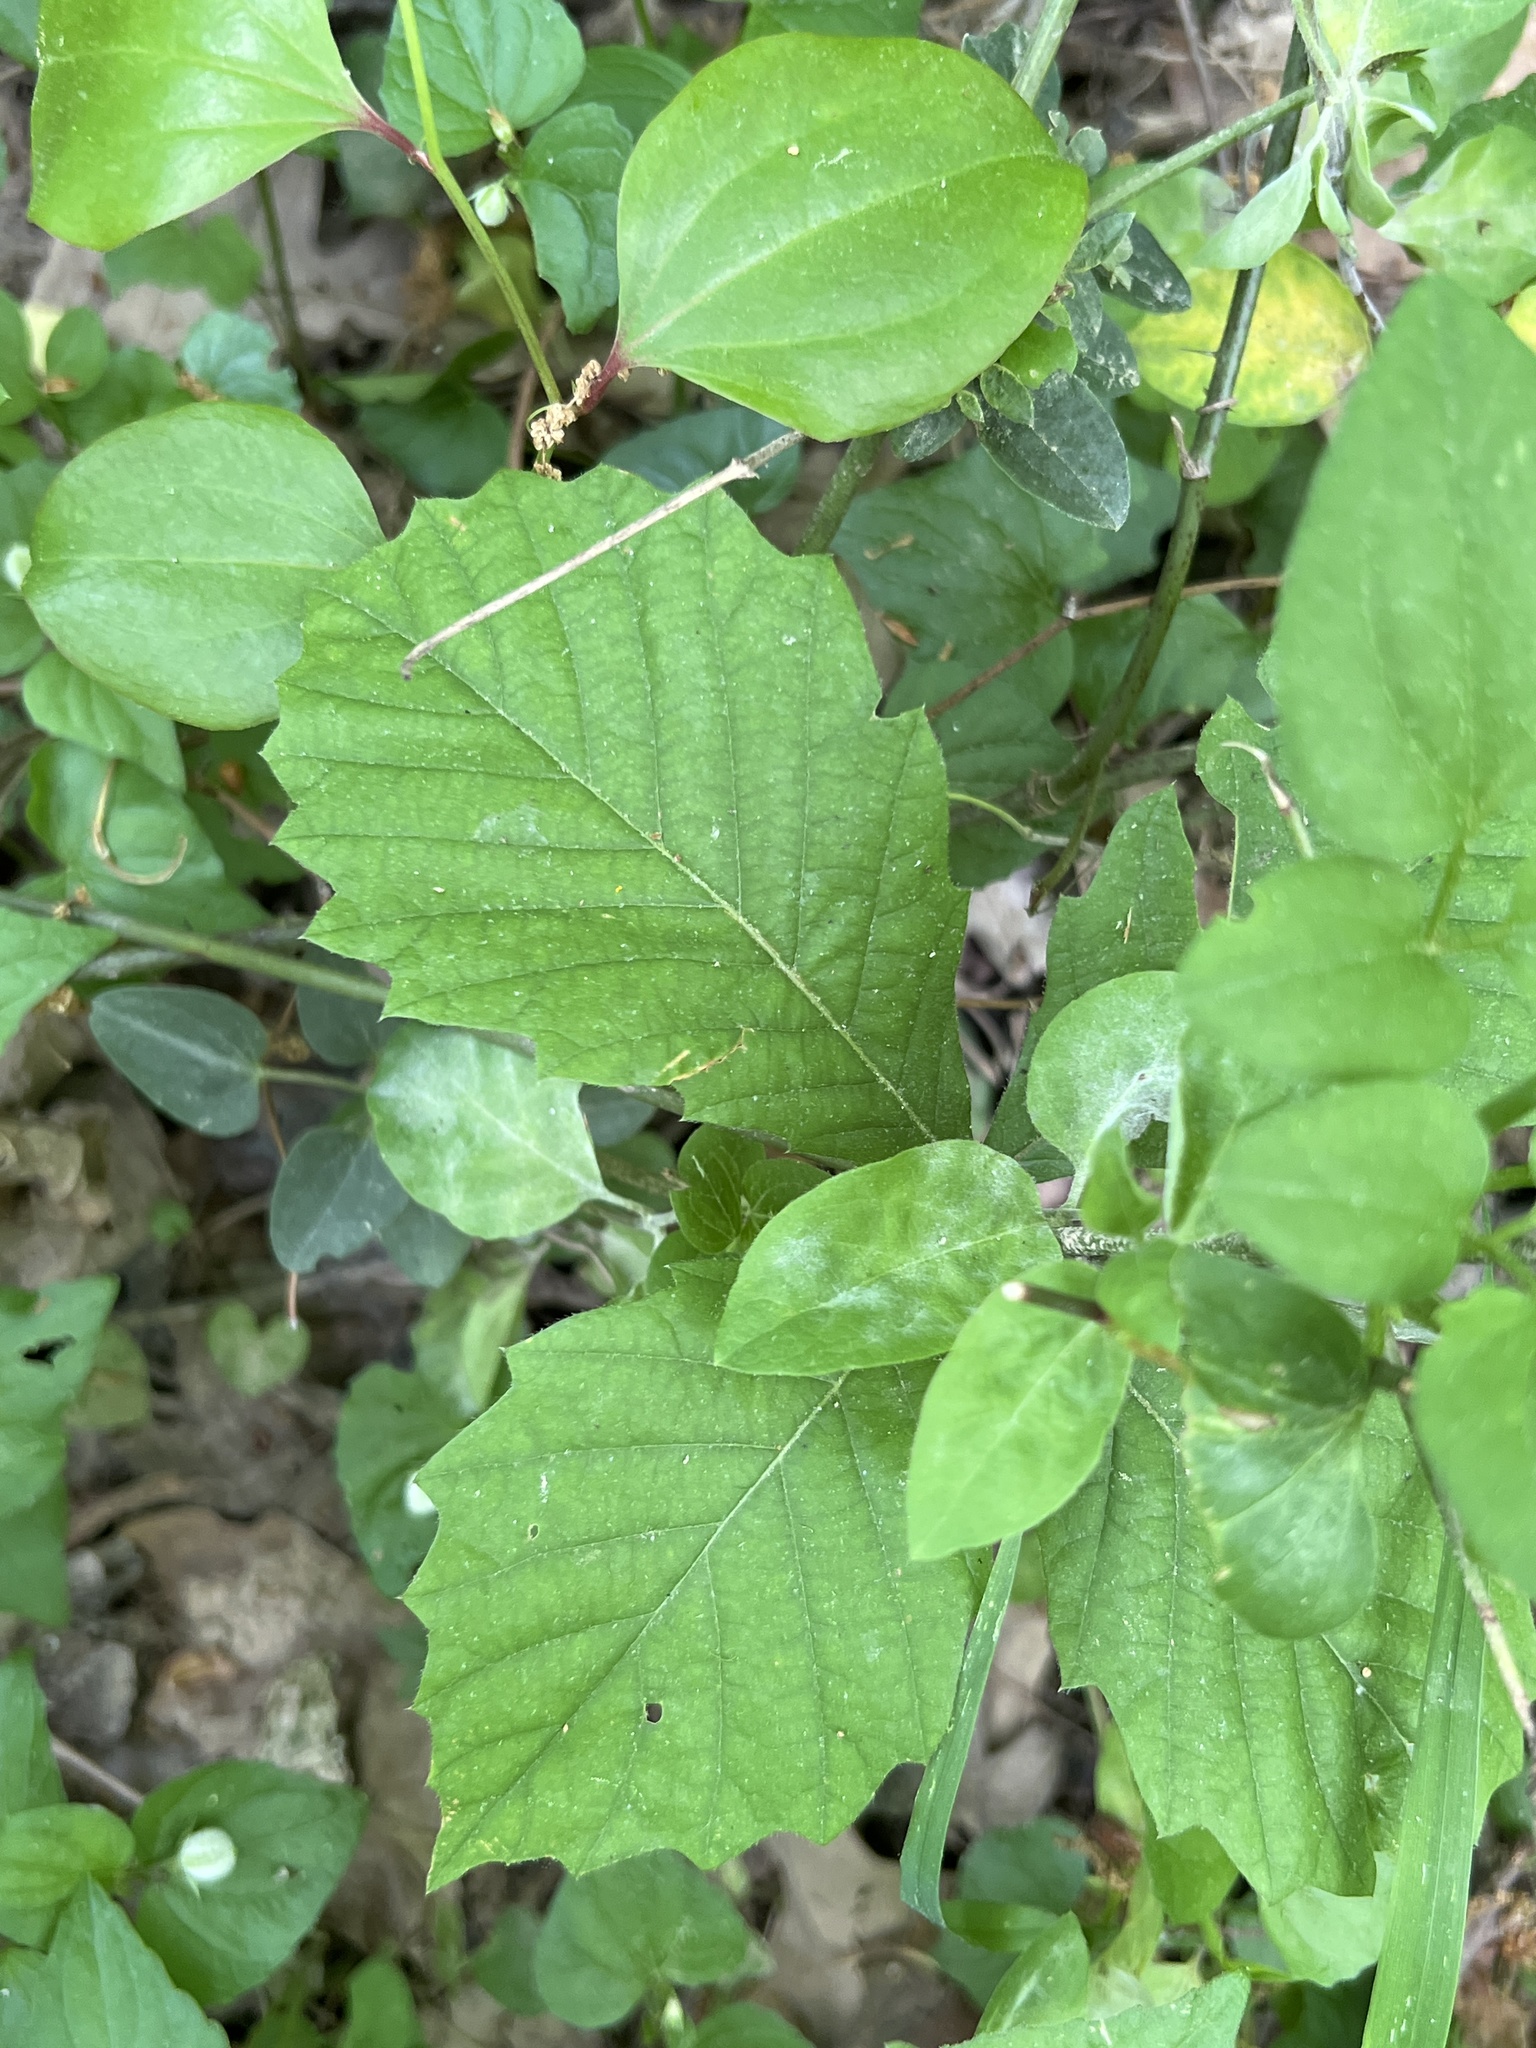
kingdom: Plantae
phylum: Tracheophyta
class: Magnoliopsida
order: Fagales
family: Fagaceae
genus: Quercus
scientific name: Quercus michauxii
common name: Swamp chestnut oak
